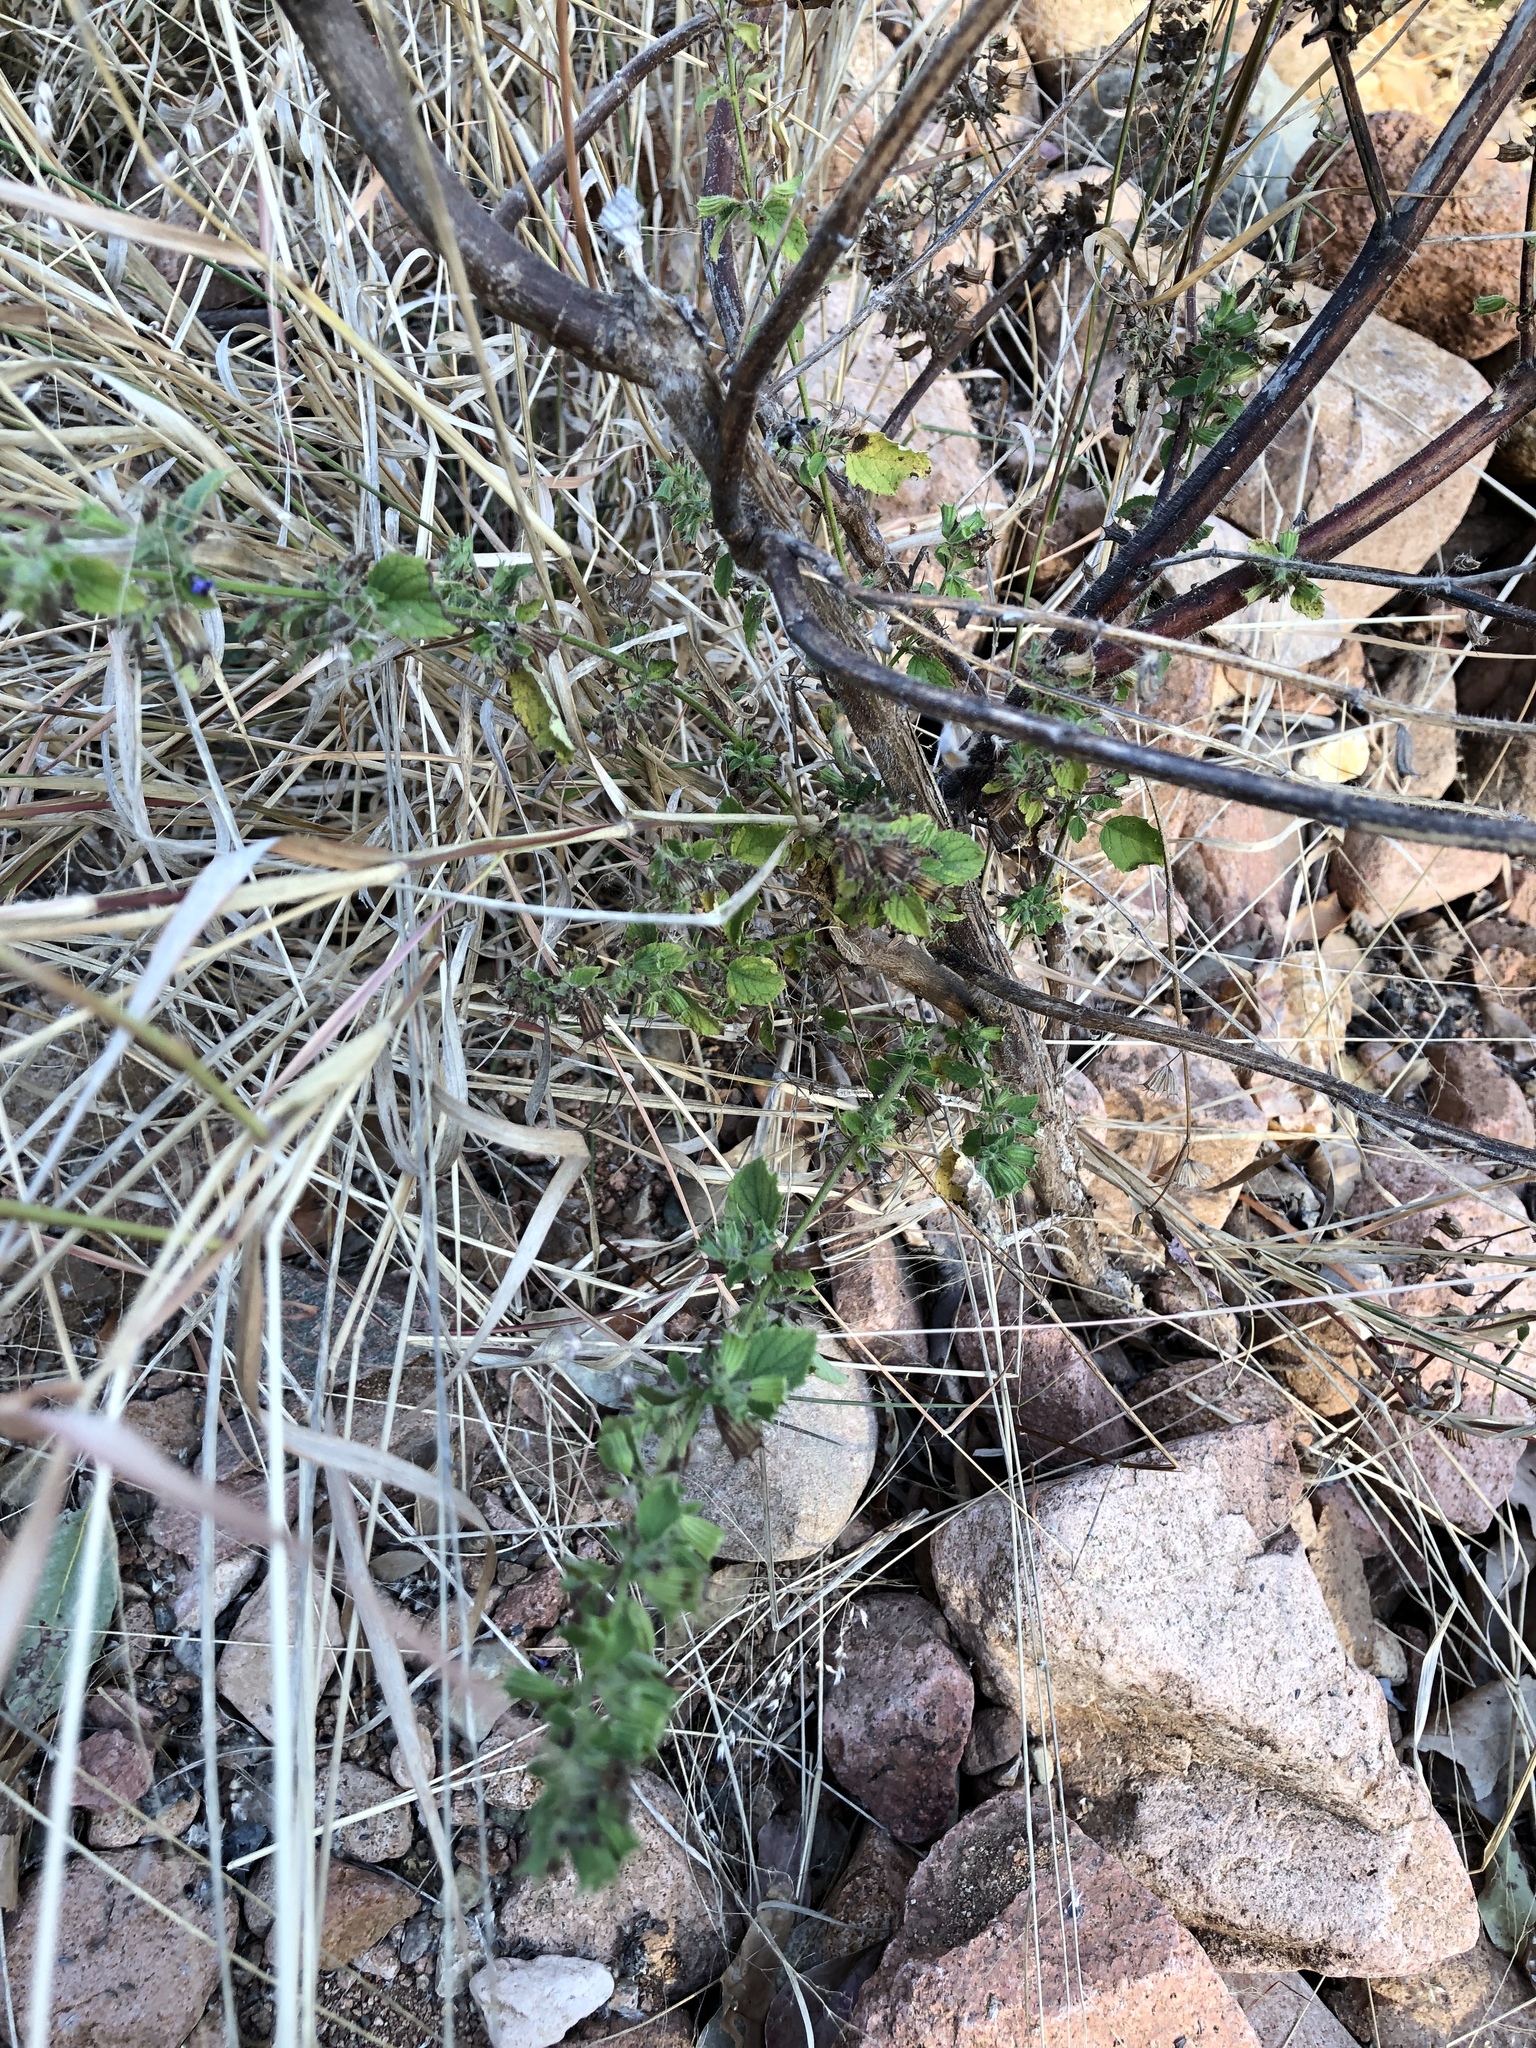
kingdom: Plantae
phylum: Tracheophyta
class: Magnoliopsida
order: Lamiales
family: Lamiaceae
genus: Mesosphaerum
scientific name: Mesosphaerum suaveolens
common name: Pignut
